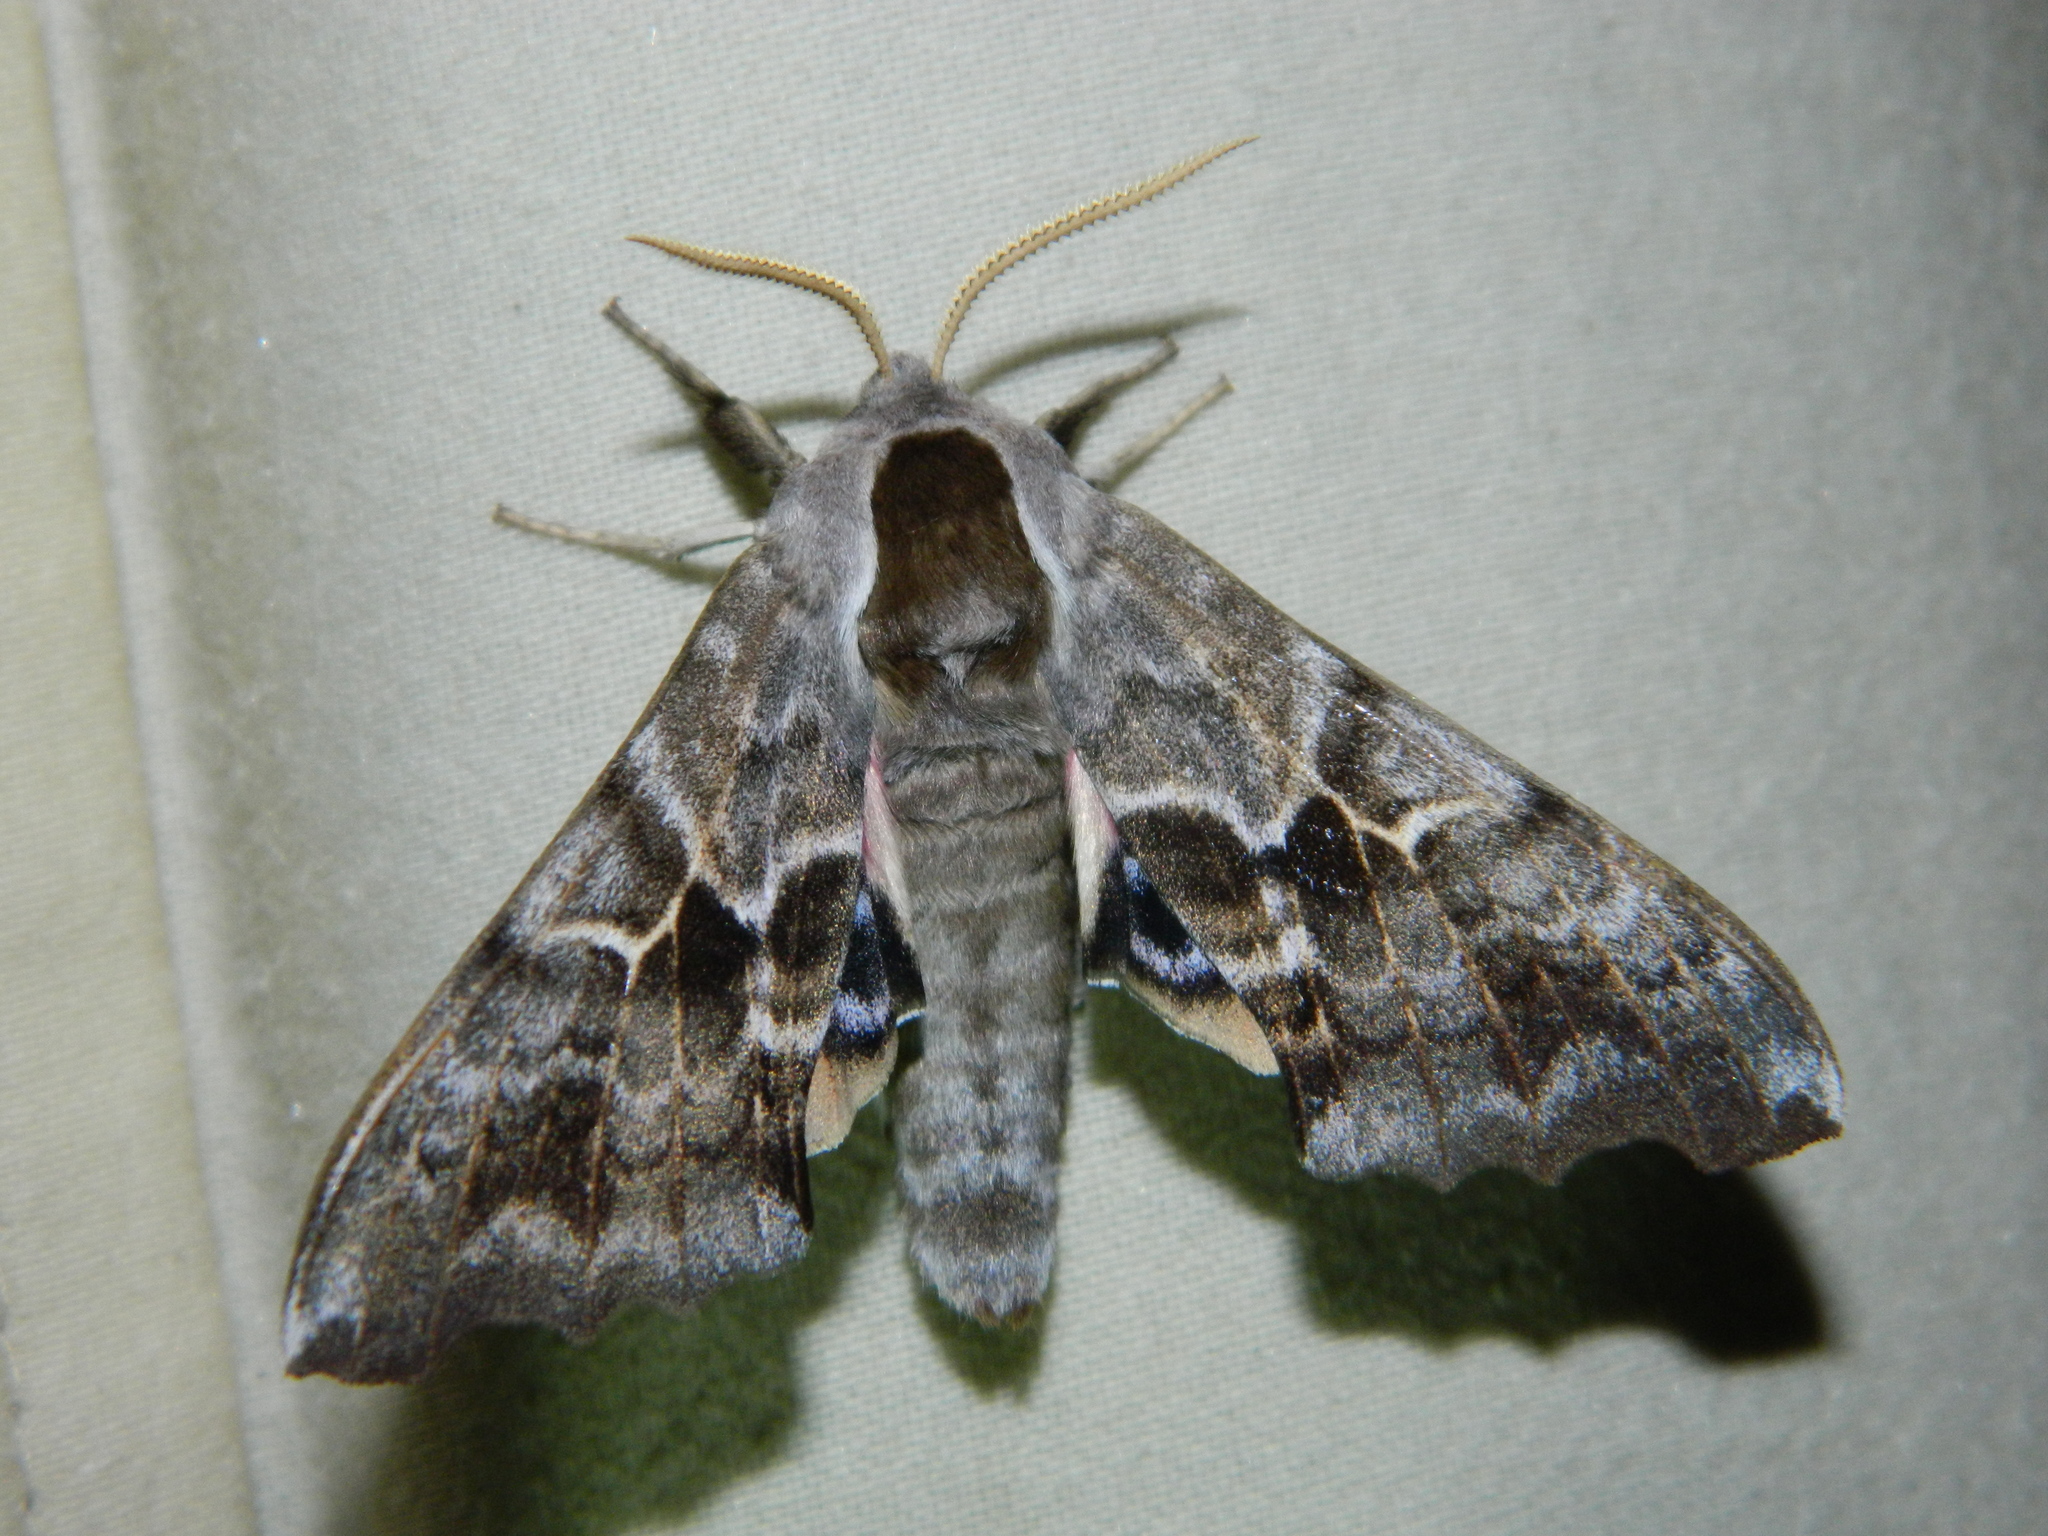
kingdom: Animalia
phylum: Arthropoda
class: Insecta
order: Lepidoptera
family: Sphingidae
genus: Smerinthus
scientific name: Smerinthus cerisyi
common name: Cerisy's sphinx moth
